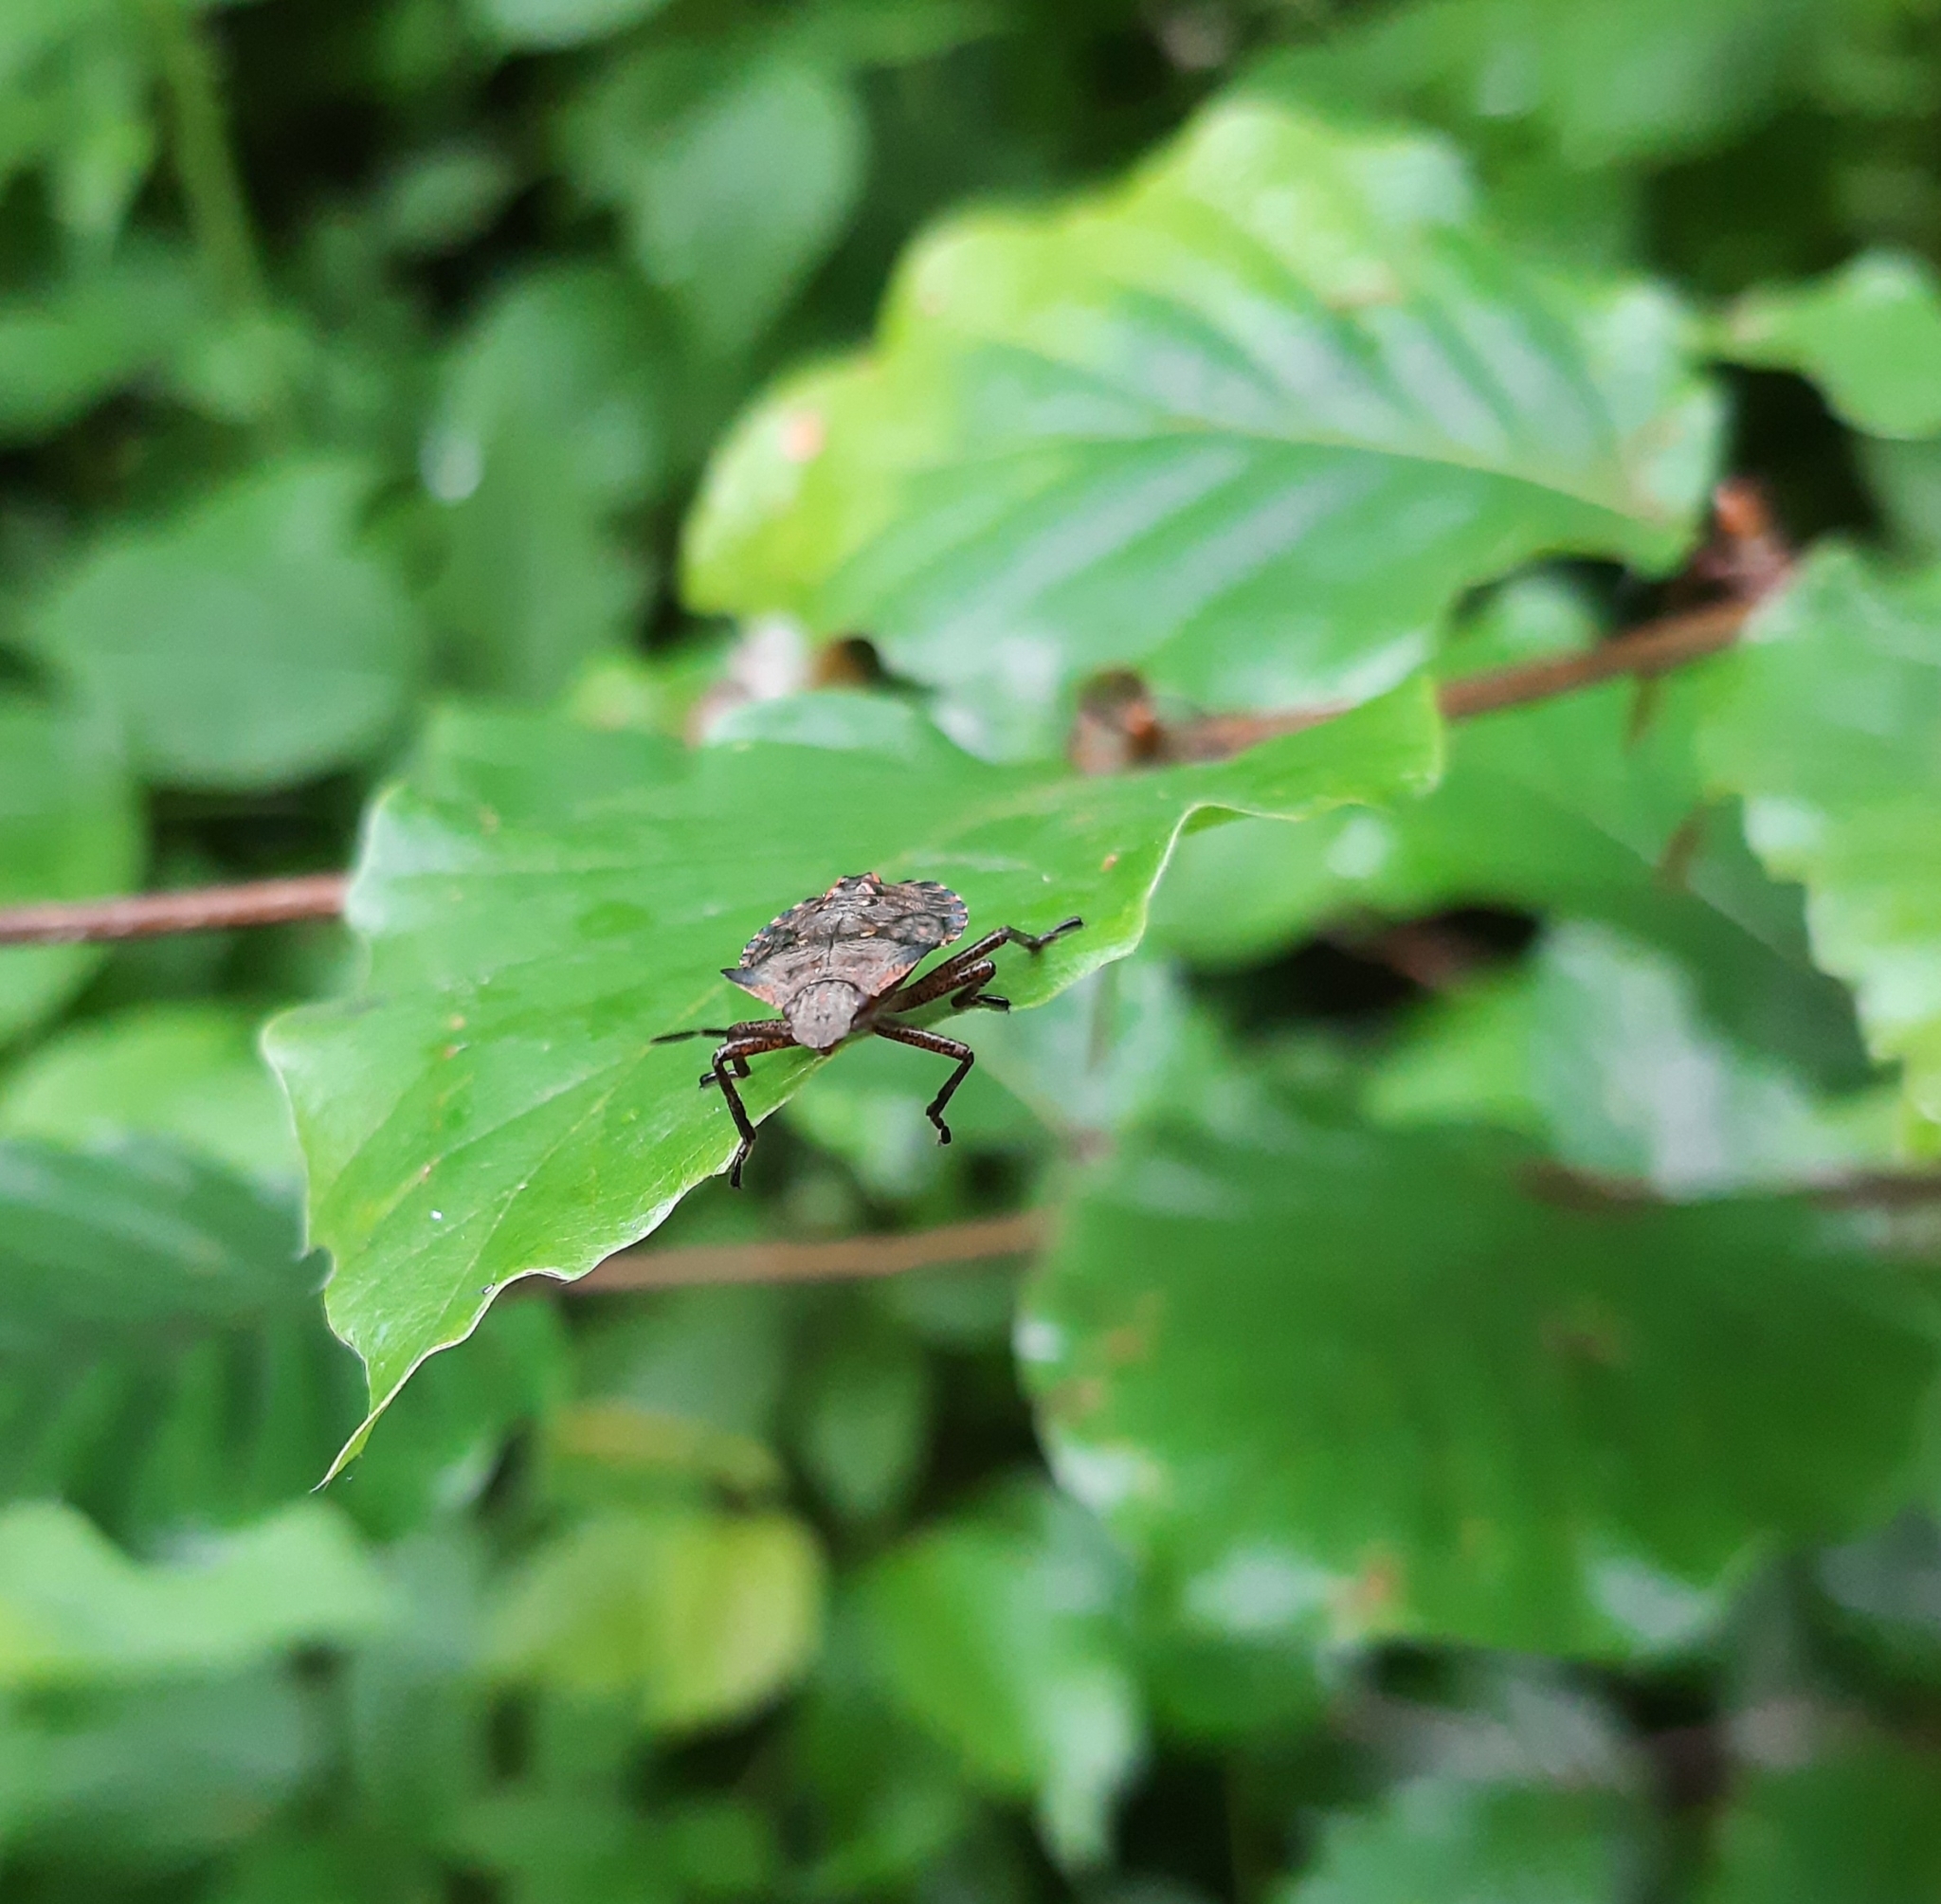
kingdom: Animalia
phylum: Arthropoda
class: Insecta
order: Hemiptera
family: Pentatomidae
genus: Pentatoma
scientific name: Pentatoma rufipes
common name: Forest bug
